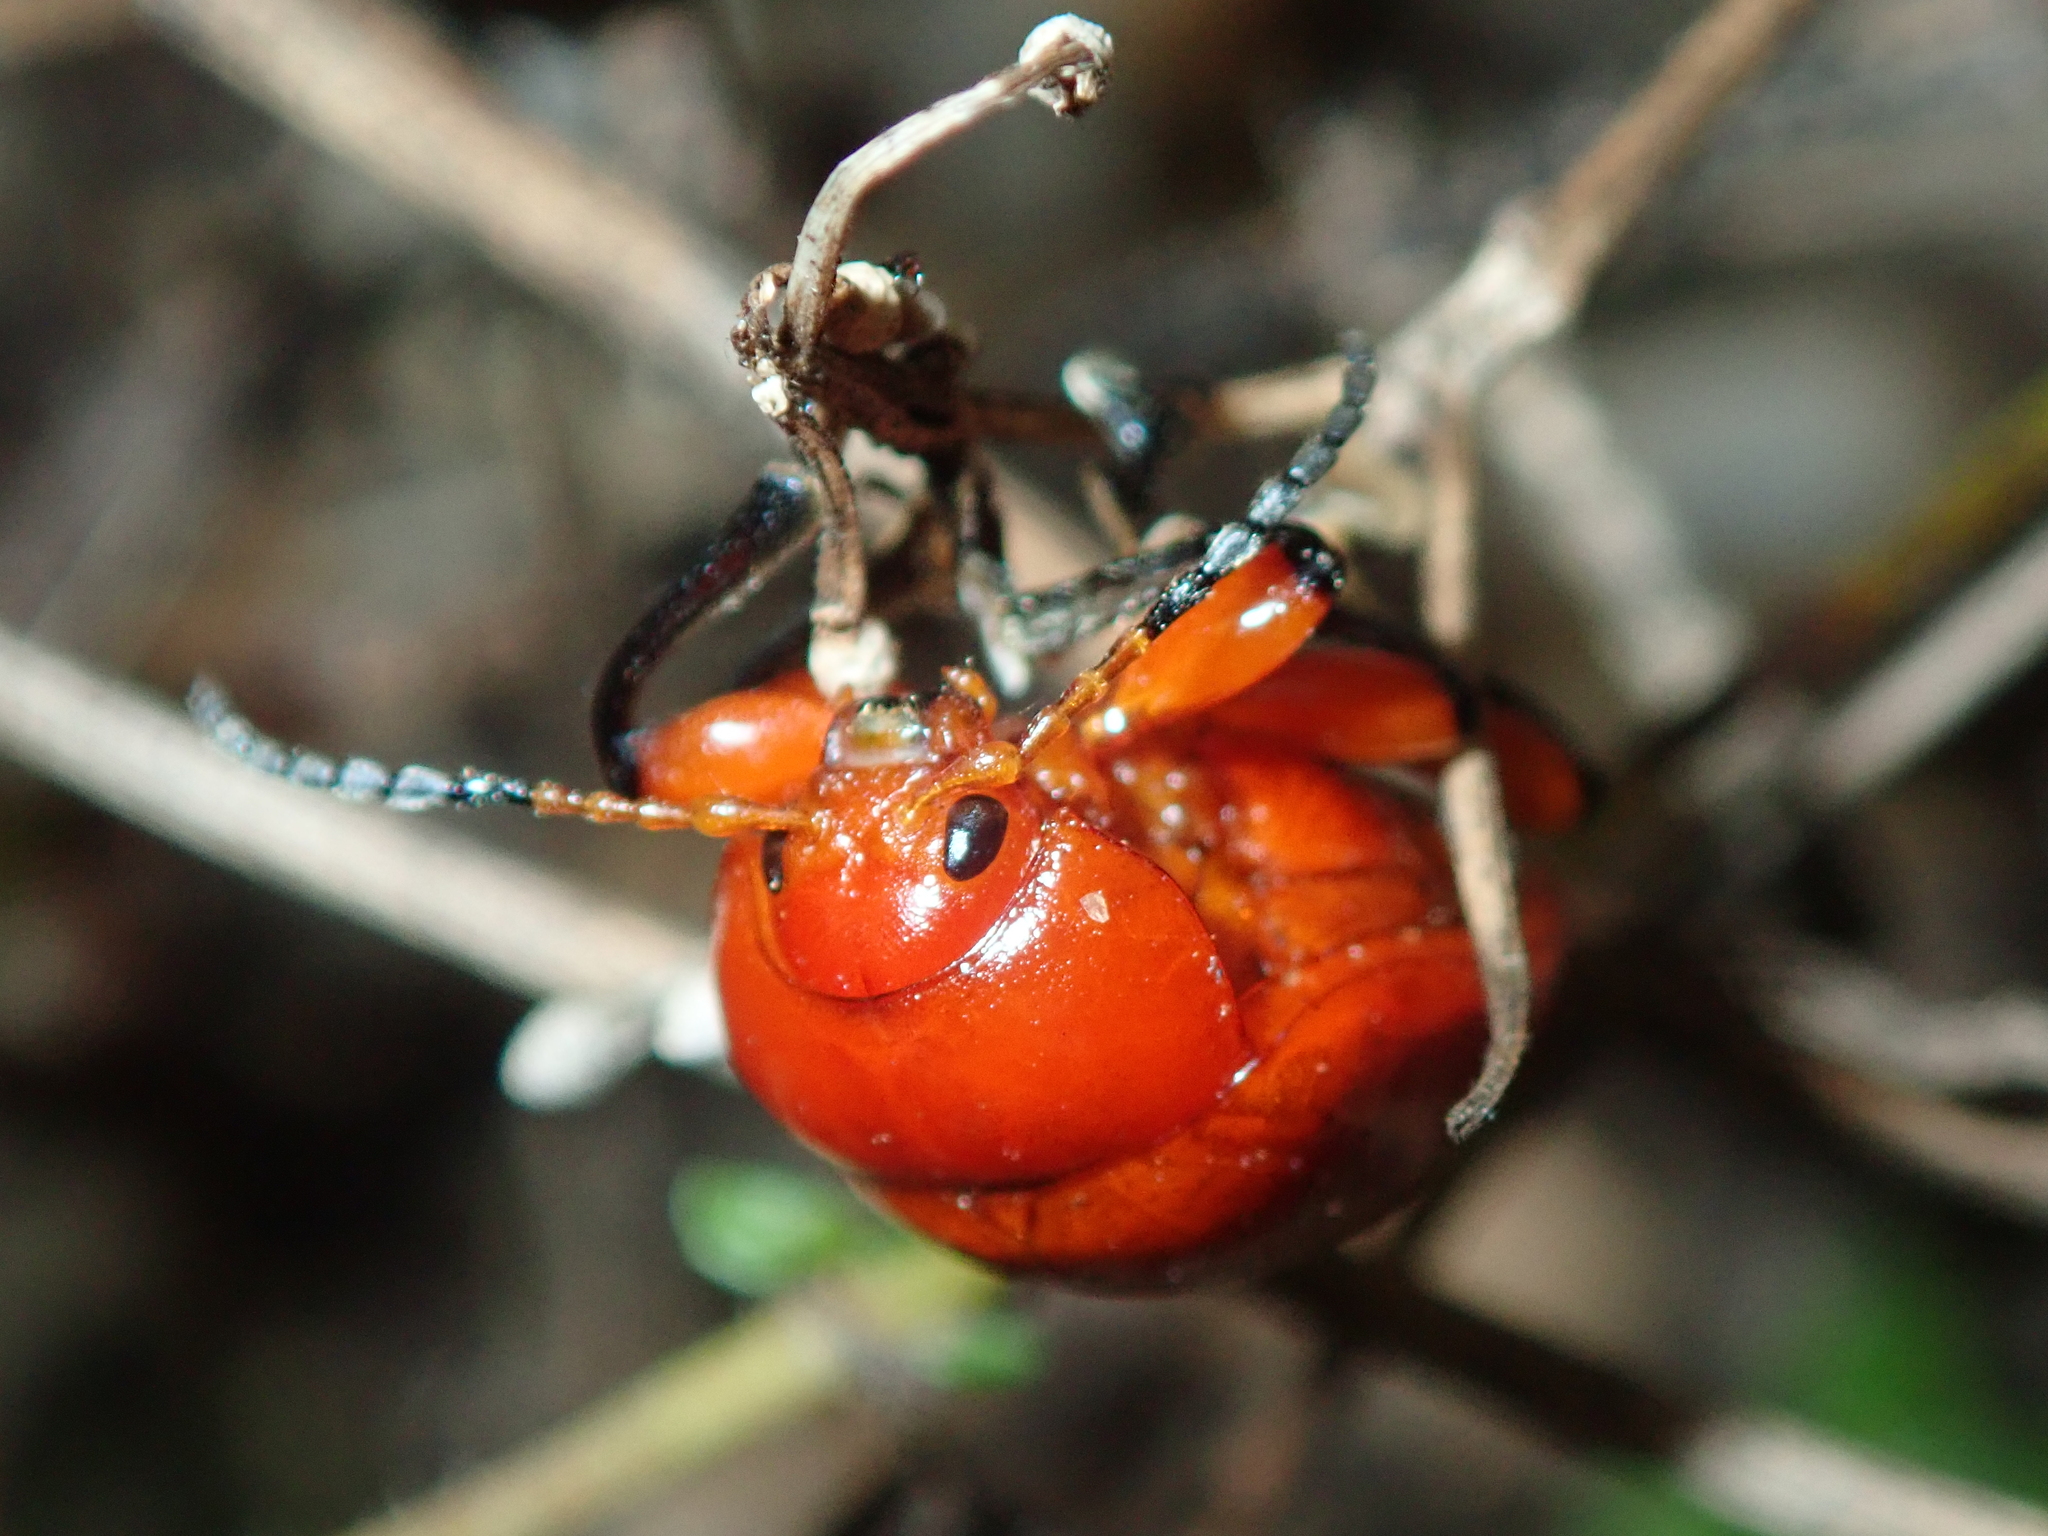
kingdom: Animalia
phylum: Arthropoda
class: Insecta
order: Coleoptera
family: Chrysomelidae
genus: Crimissa
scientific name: Crimissa cruralis
